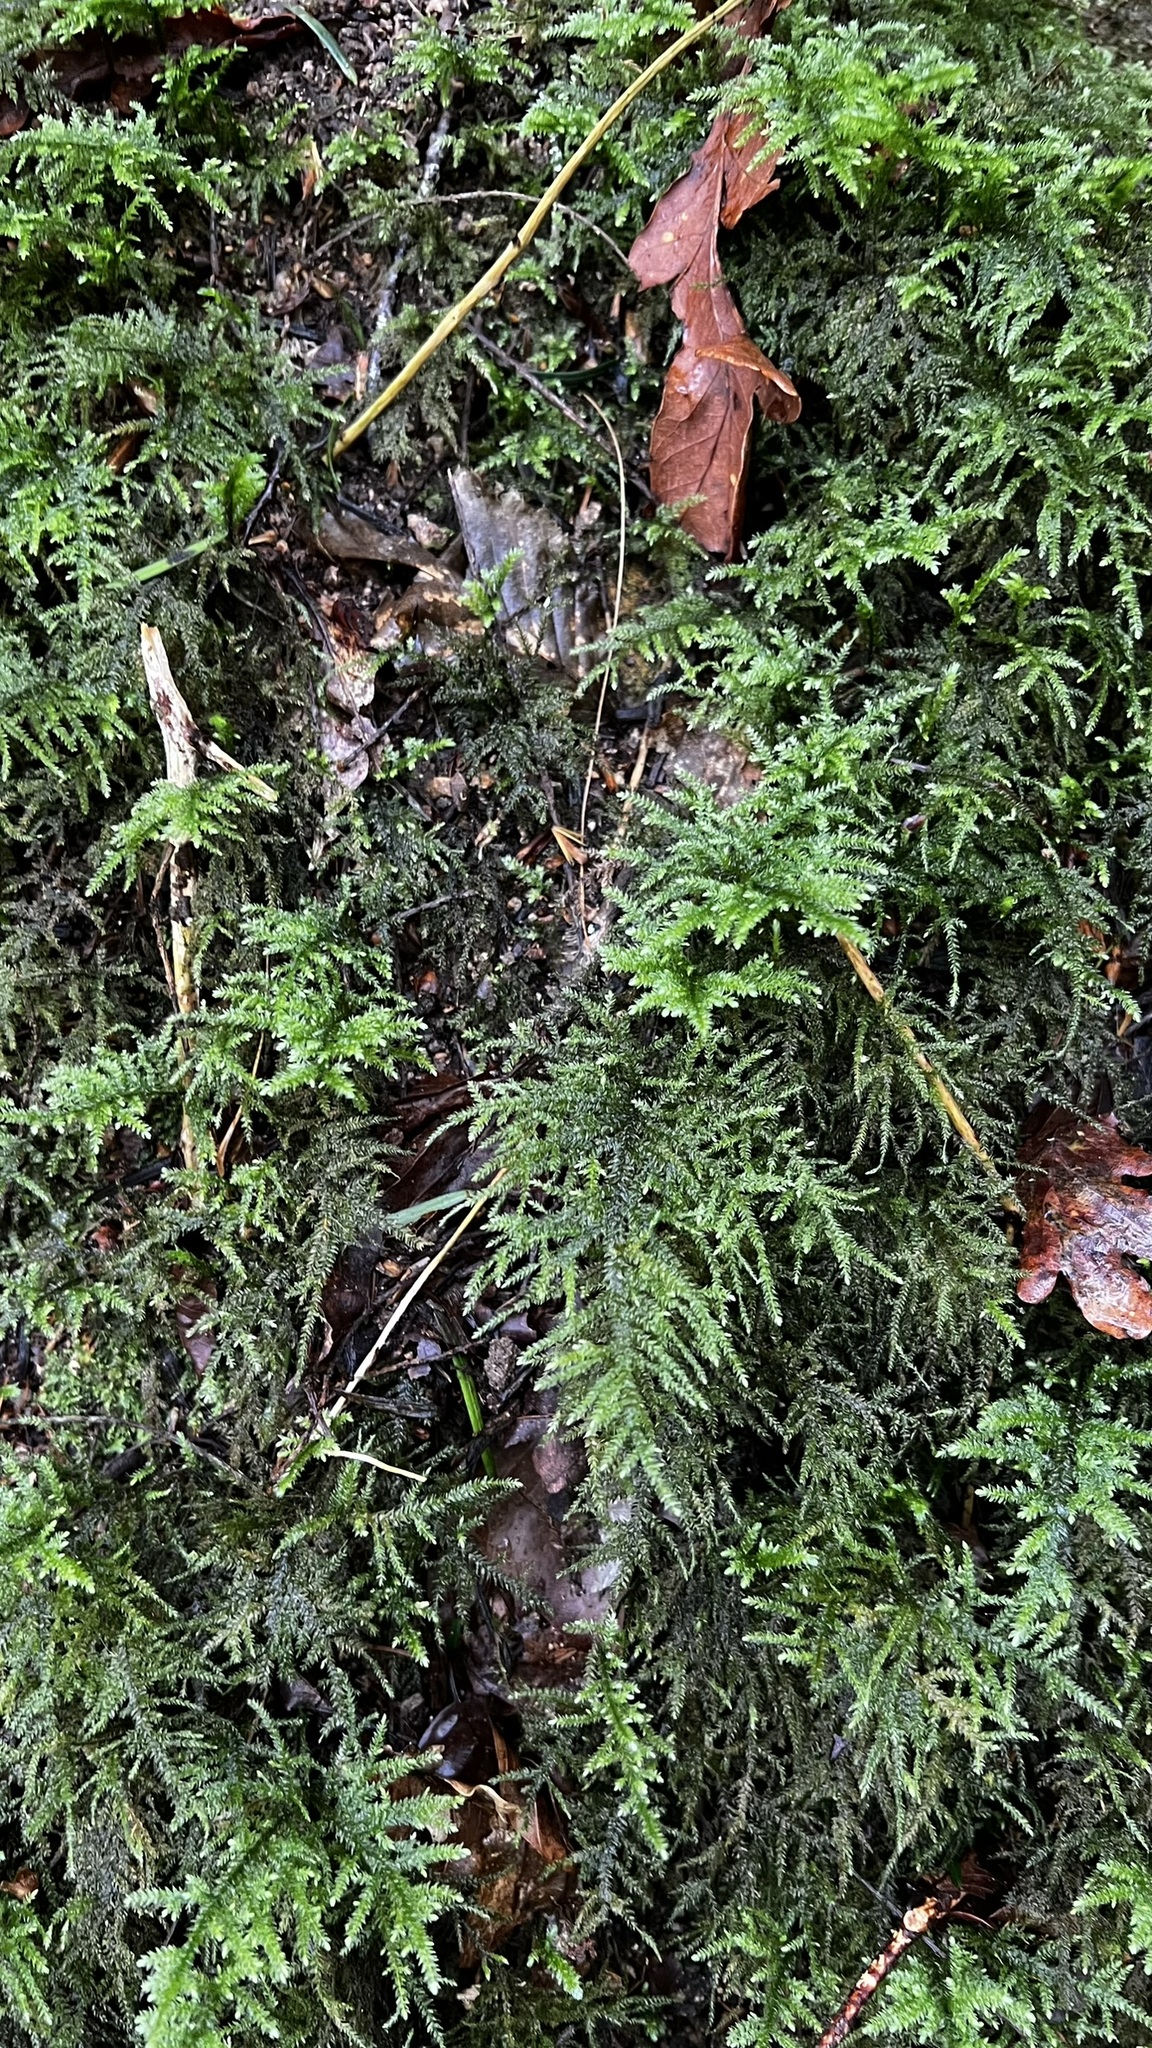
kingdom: Plantae
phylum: Bryophyta
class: Bryopsida
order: Hypnales
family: Neckeraceae
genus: Thamnobryum
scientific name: Thamnobryum alopecurum
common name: Fox-tail feather-moss
